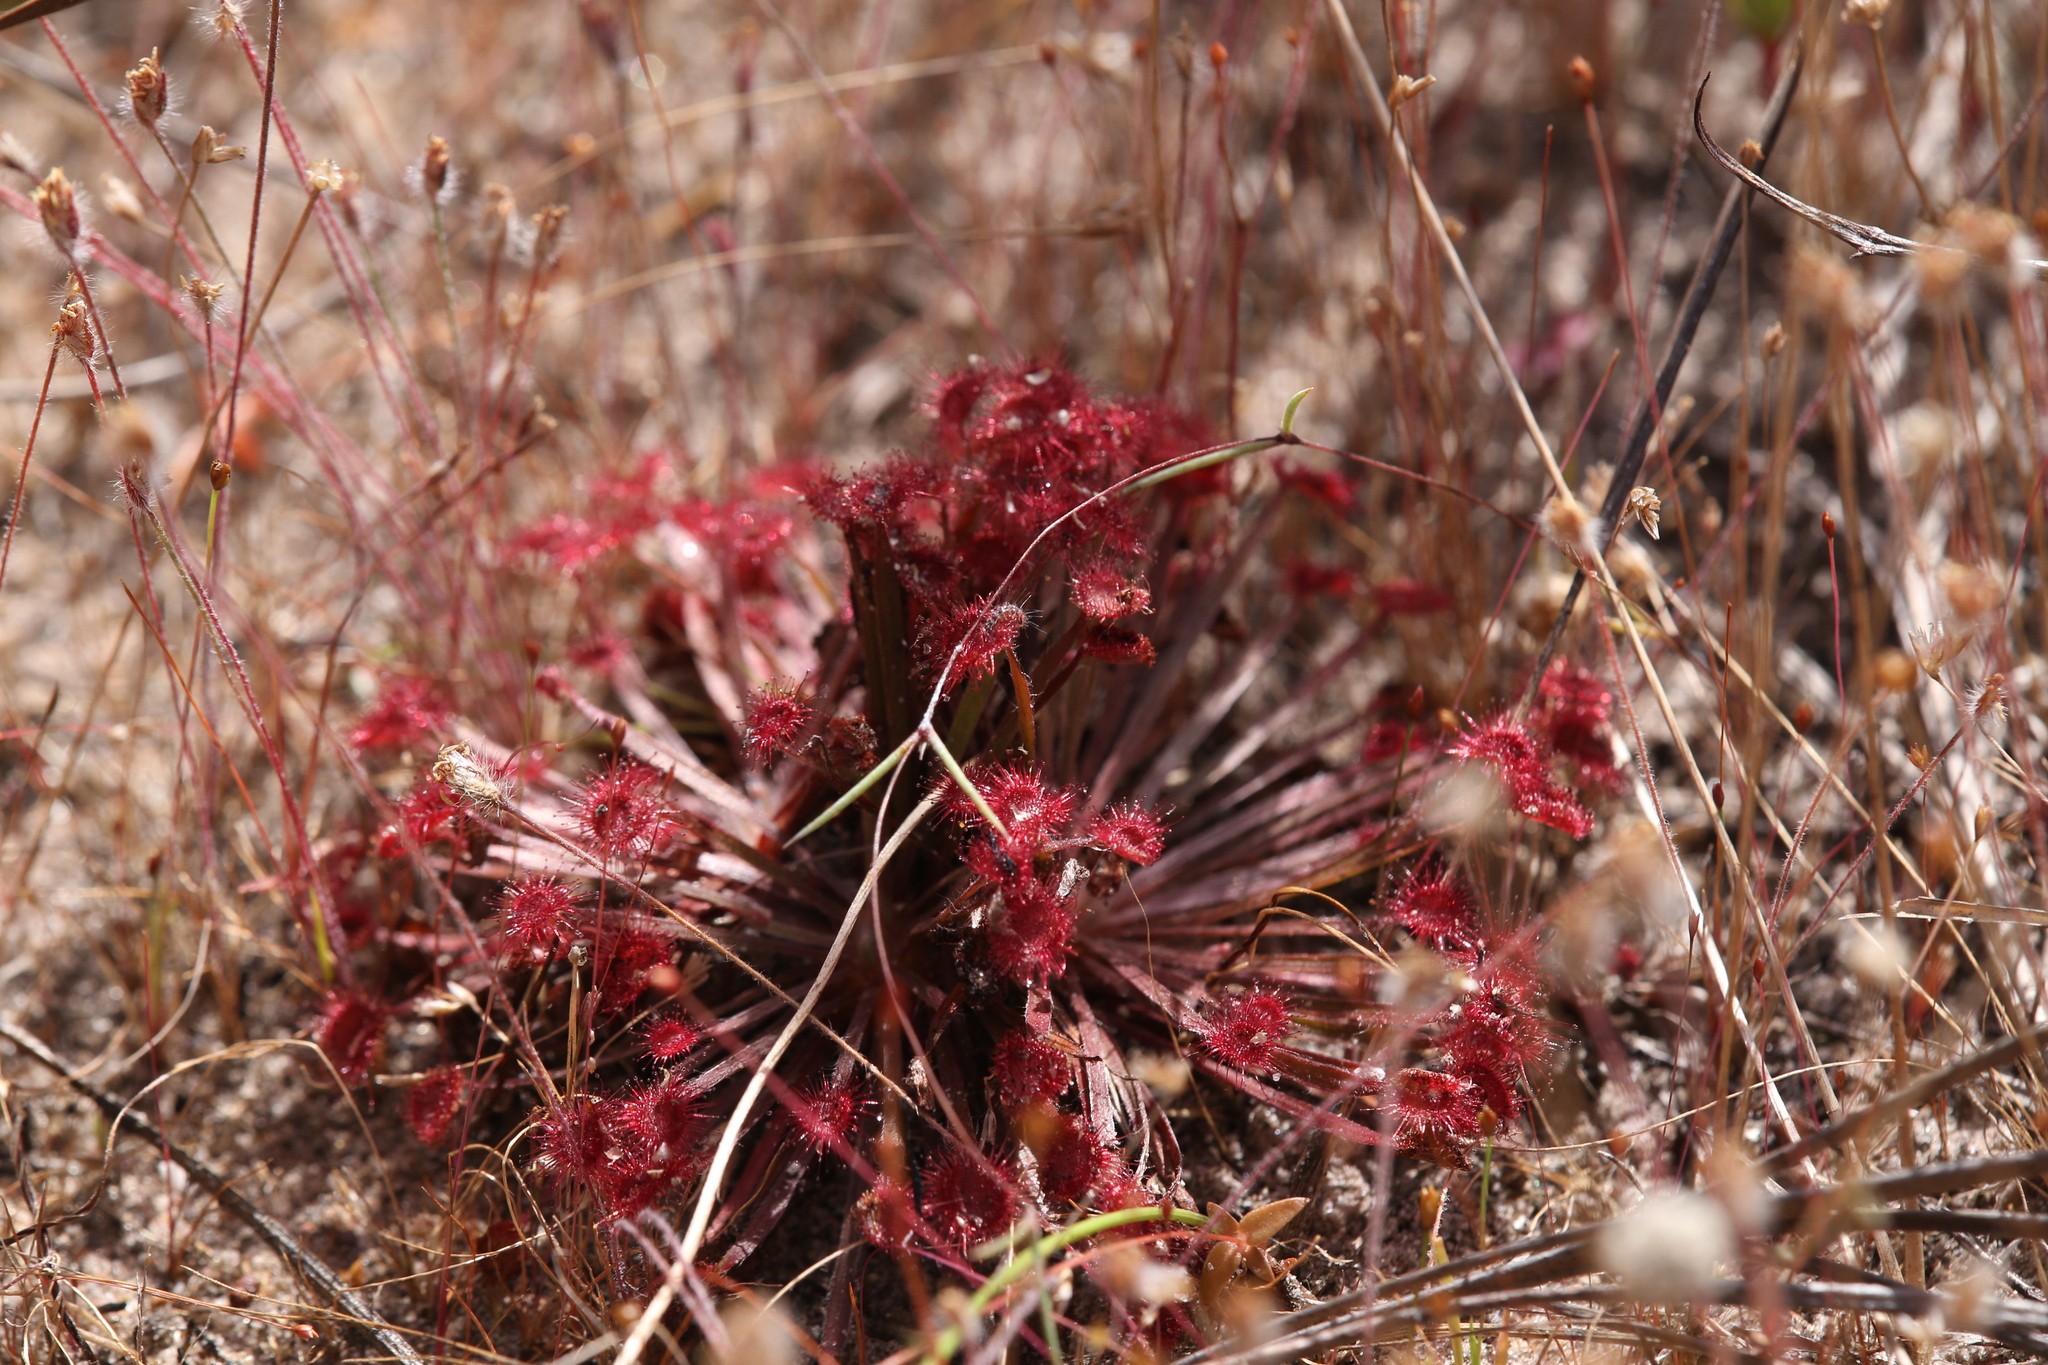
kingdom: Plantae
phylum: Tracheophyta
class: Magnoliopsida
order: Caryophyllales
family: Droseraceae
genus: Drosera
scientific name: Drosera dilatatopetiolaris
